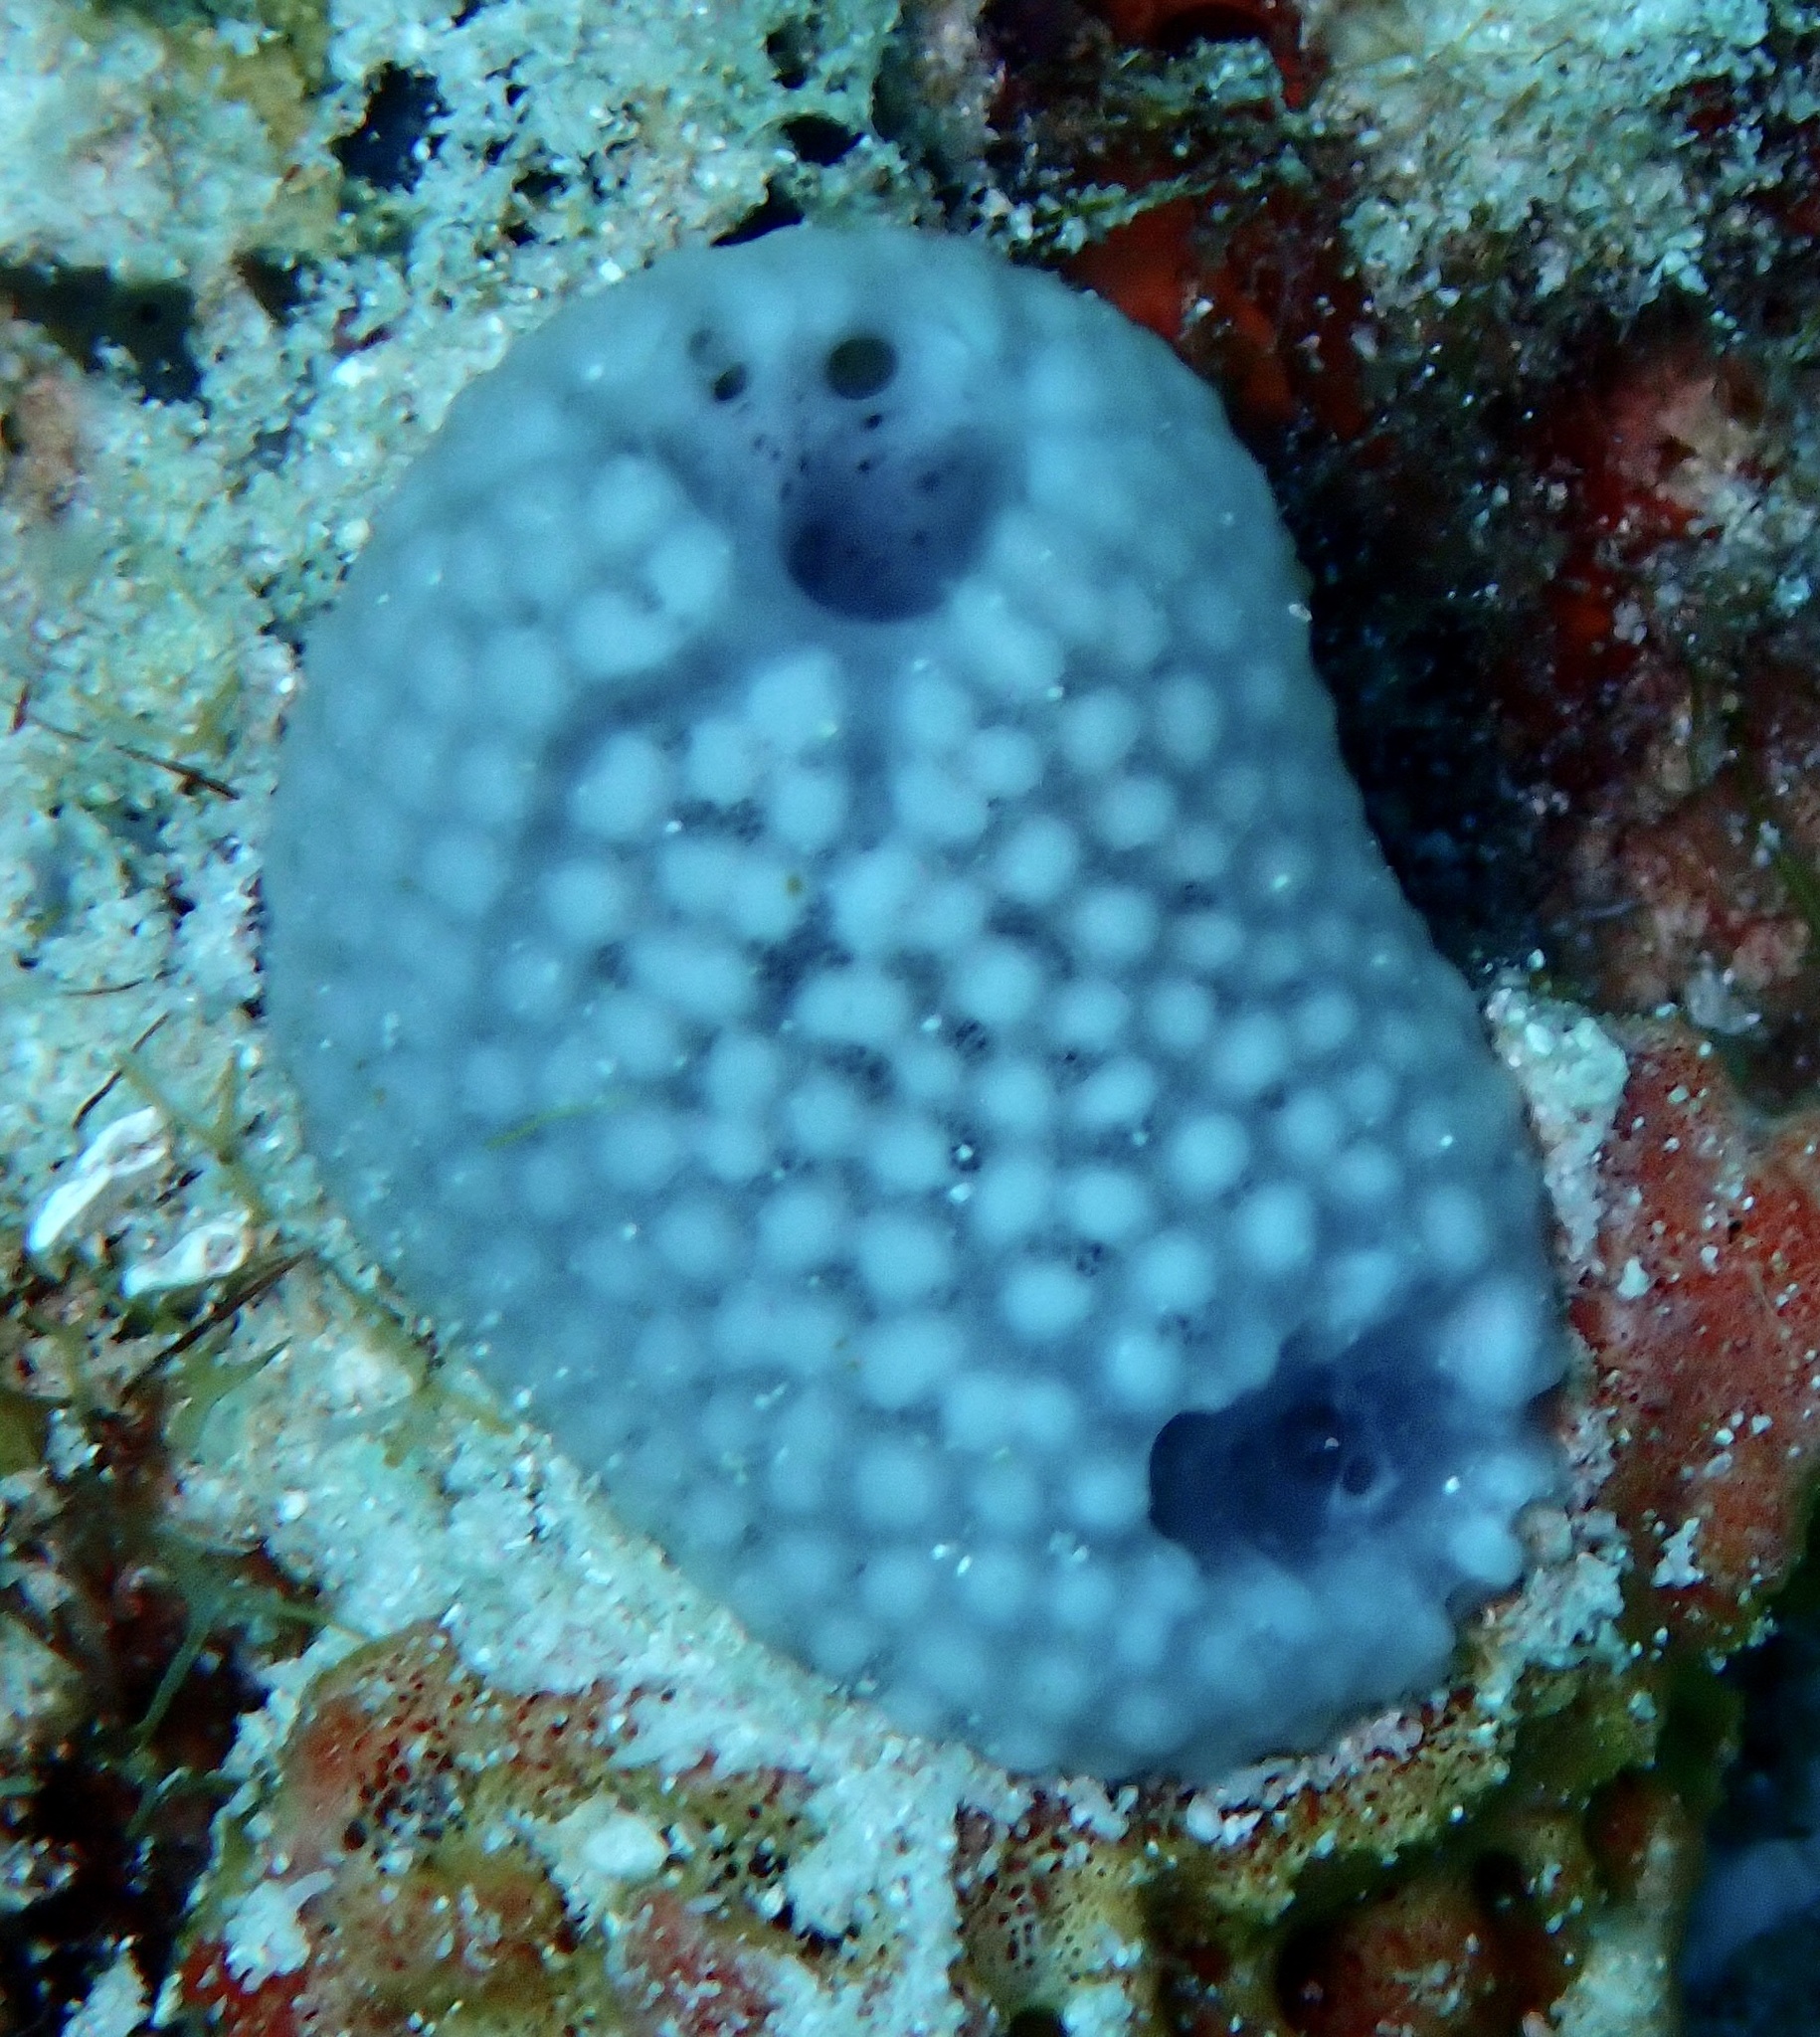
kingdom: Animalia
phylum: Porifera
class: Demospongiae
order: Haplosclerida
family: Niphatidae
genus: Niphates
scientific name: Niphates olemda
